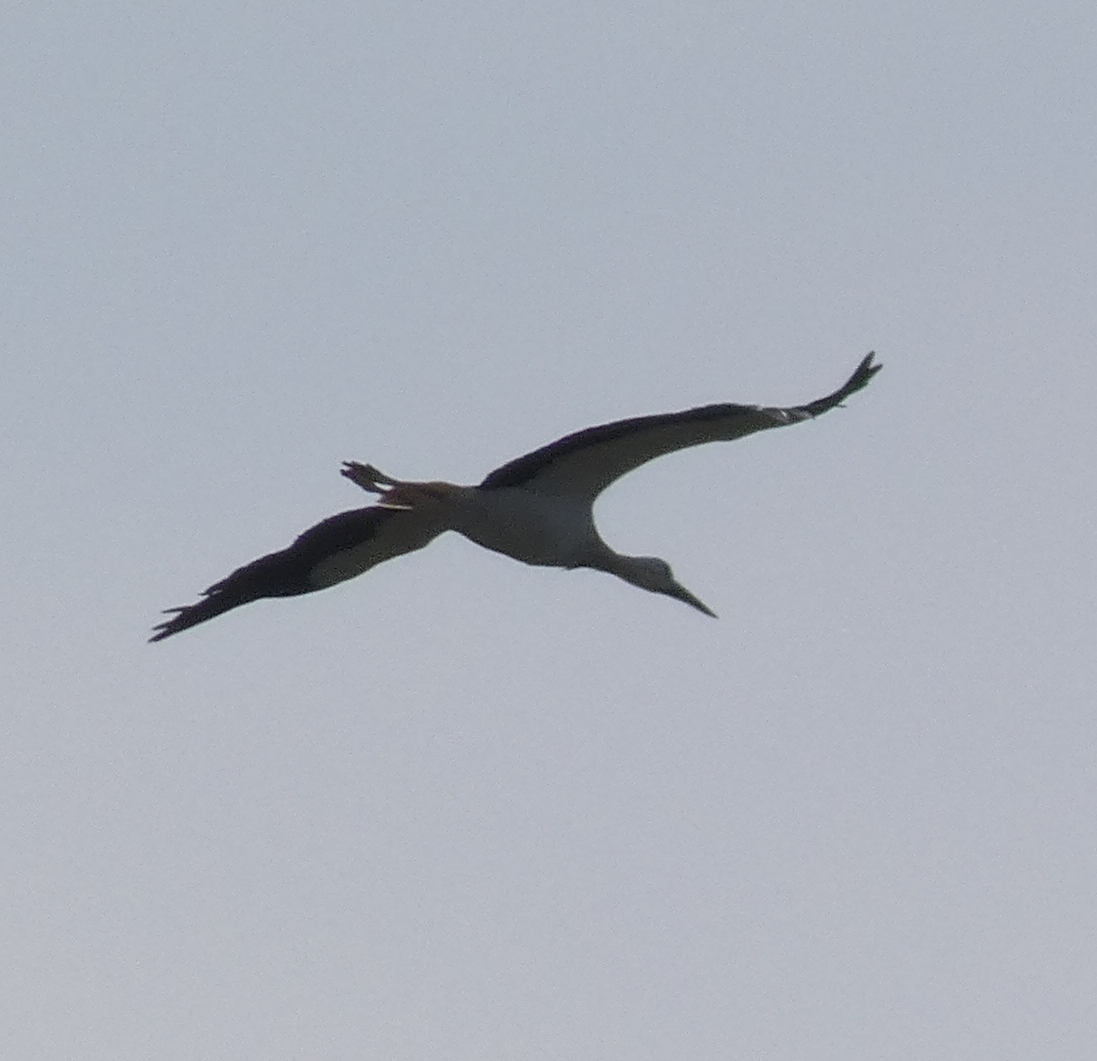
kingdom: Animalia
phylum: Chordata
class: Aves
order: Ciconiiformes
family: Ciconiidae
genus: Ciconia
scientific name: Ciconia ciconia
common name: White stork
